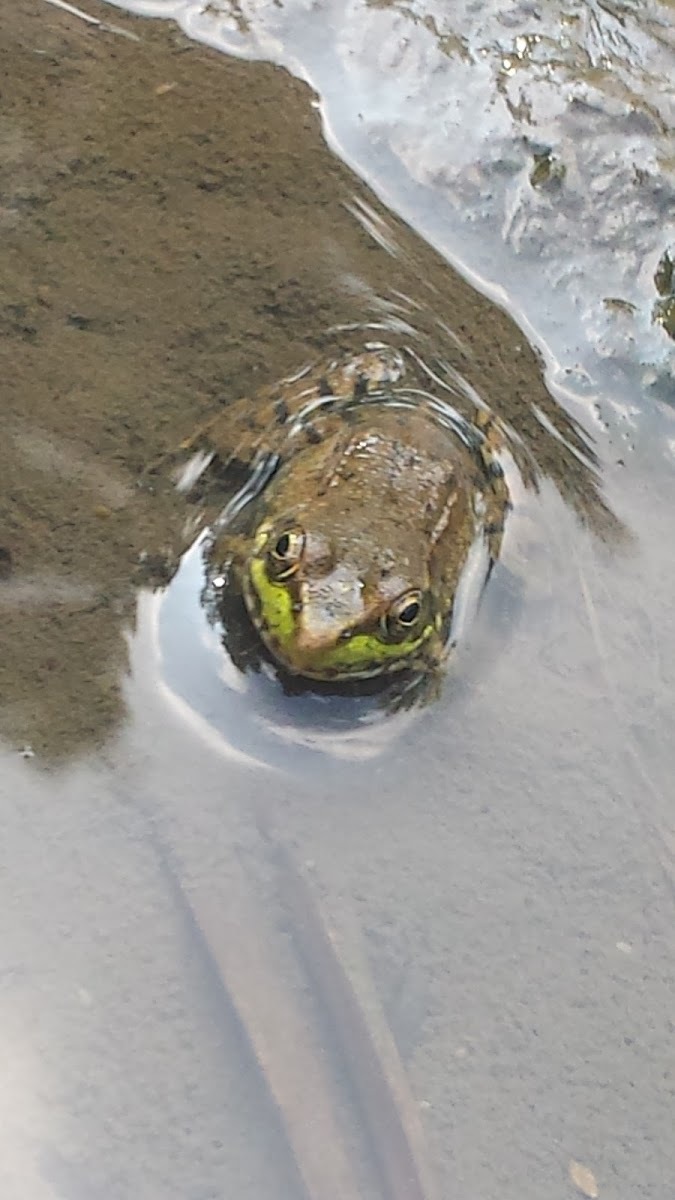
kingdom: Animalia
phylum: Chordata
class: Amphibia
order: Anura
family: Ranidae
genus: Lithobates
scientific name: Lithobates clamitans
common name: Green frog
